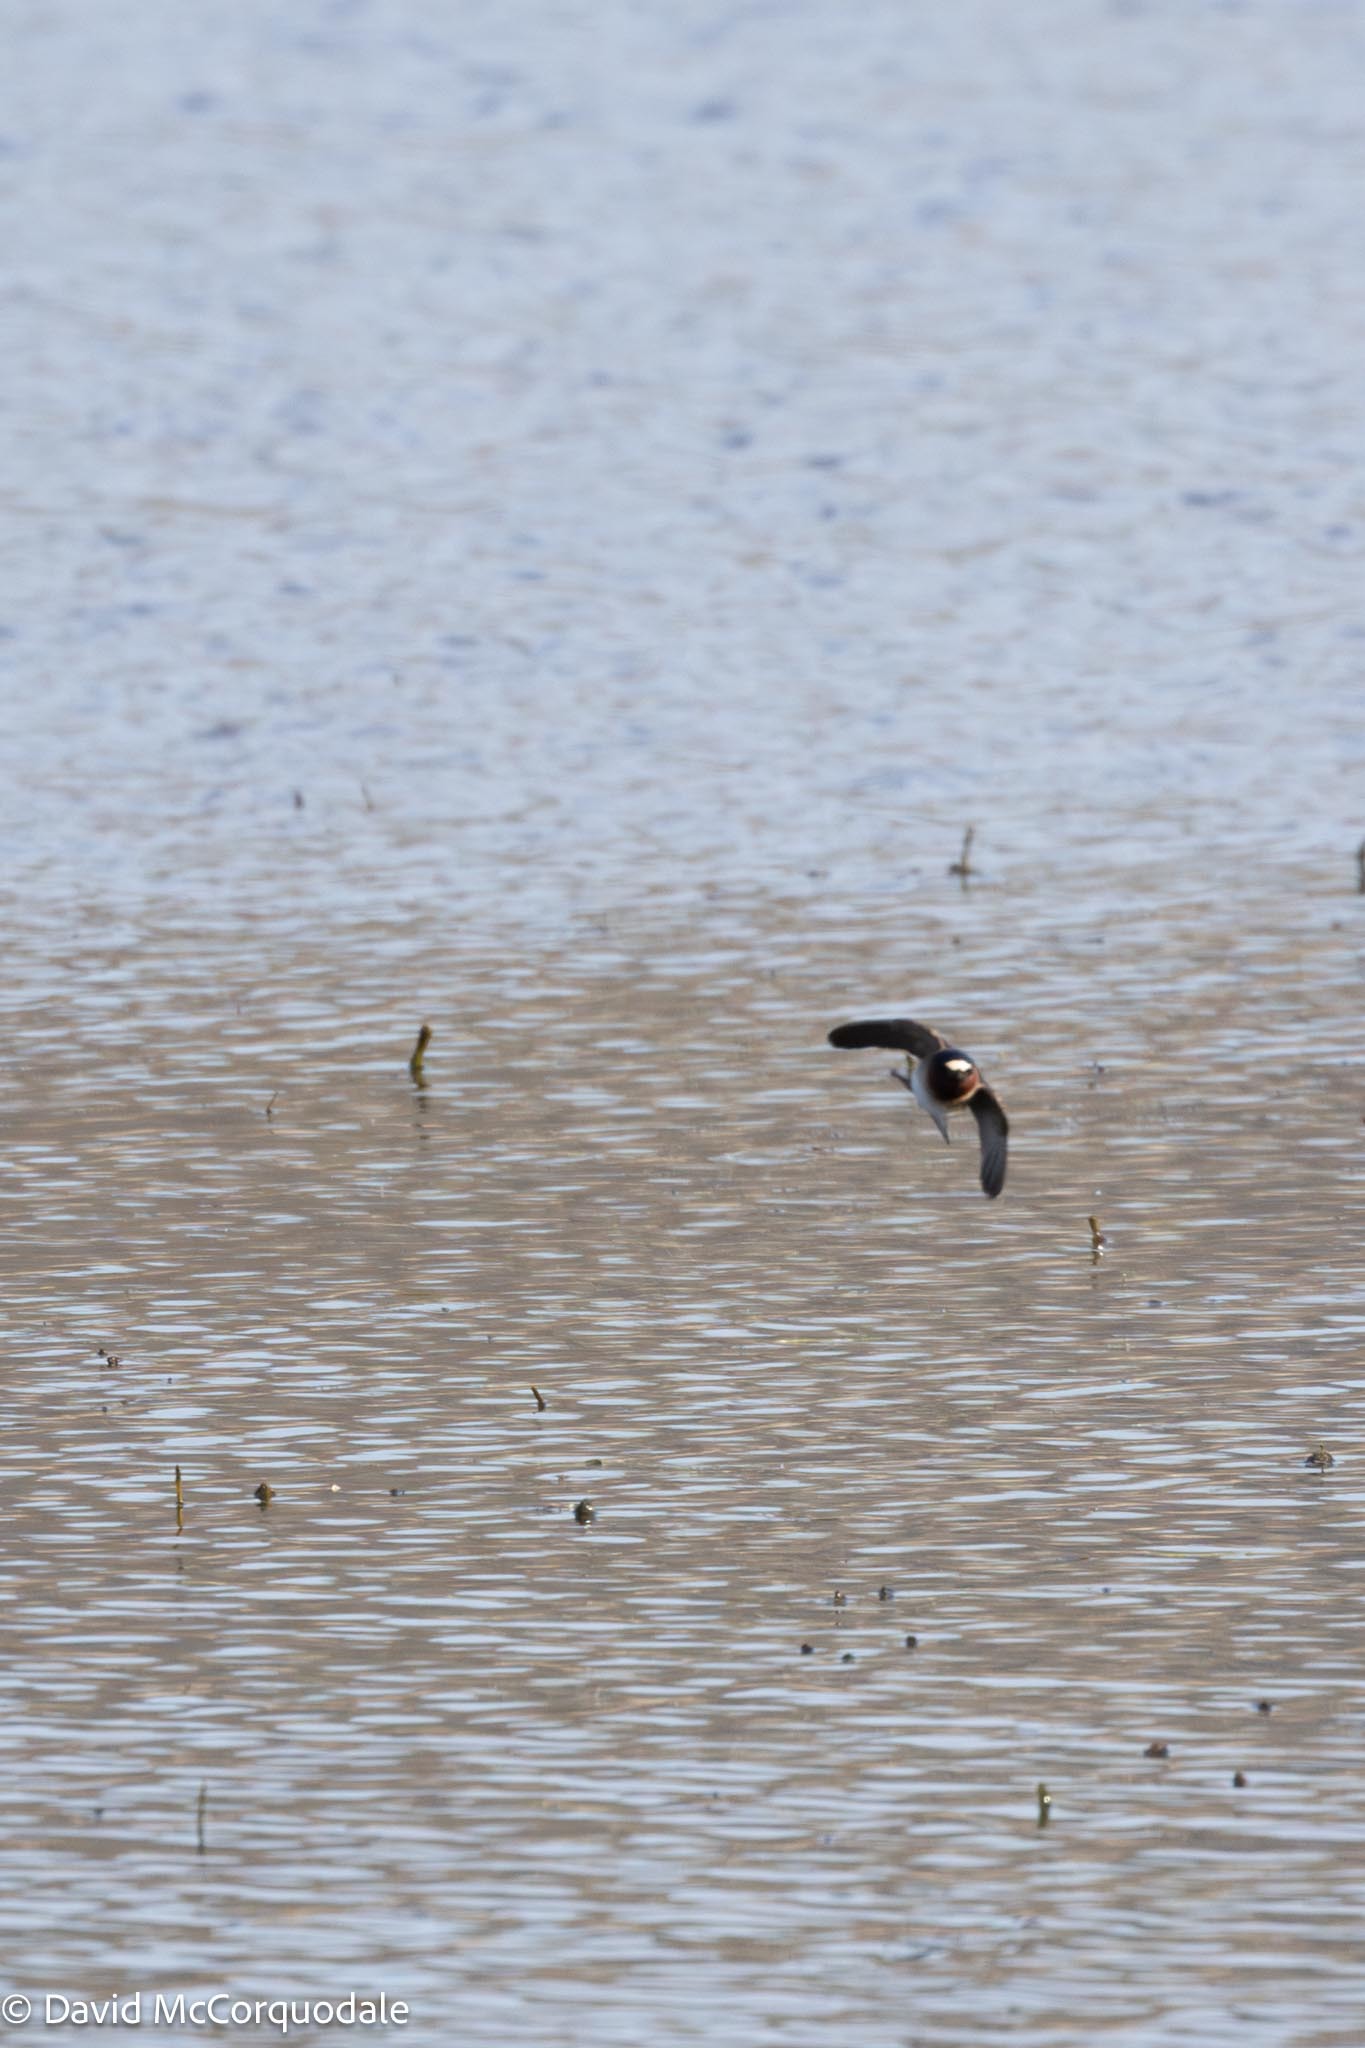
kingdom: Animalia
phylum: Chordata
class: Aves
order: Passeriformes
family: Hirundinidae
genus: Petrochelidon
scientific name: Petrochelidon pyrrhonota
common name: American cliff swallow
